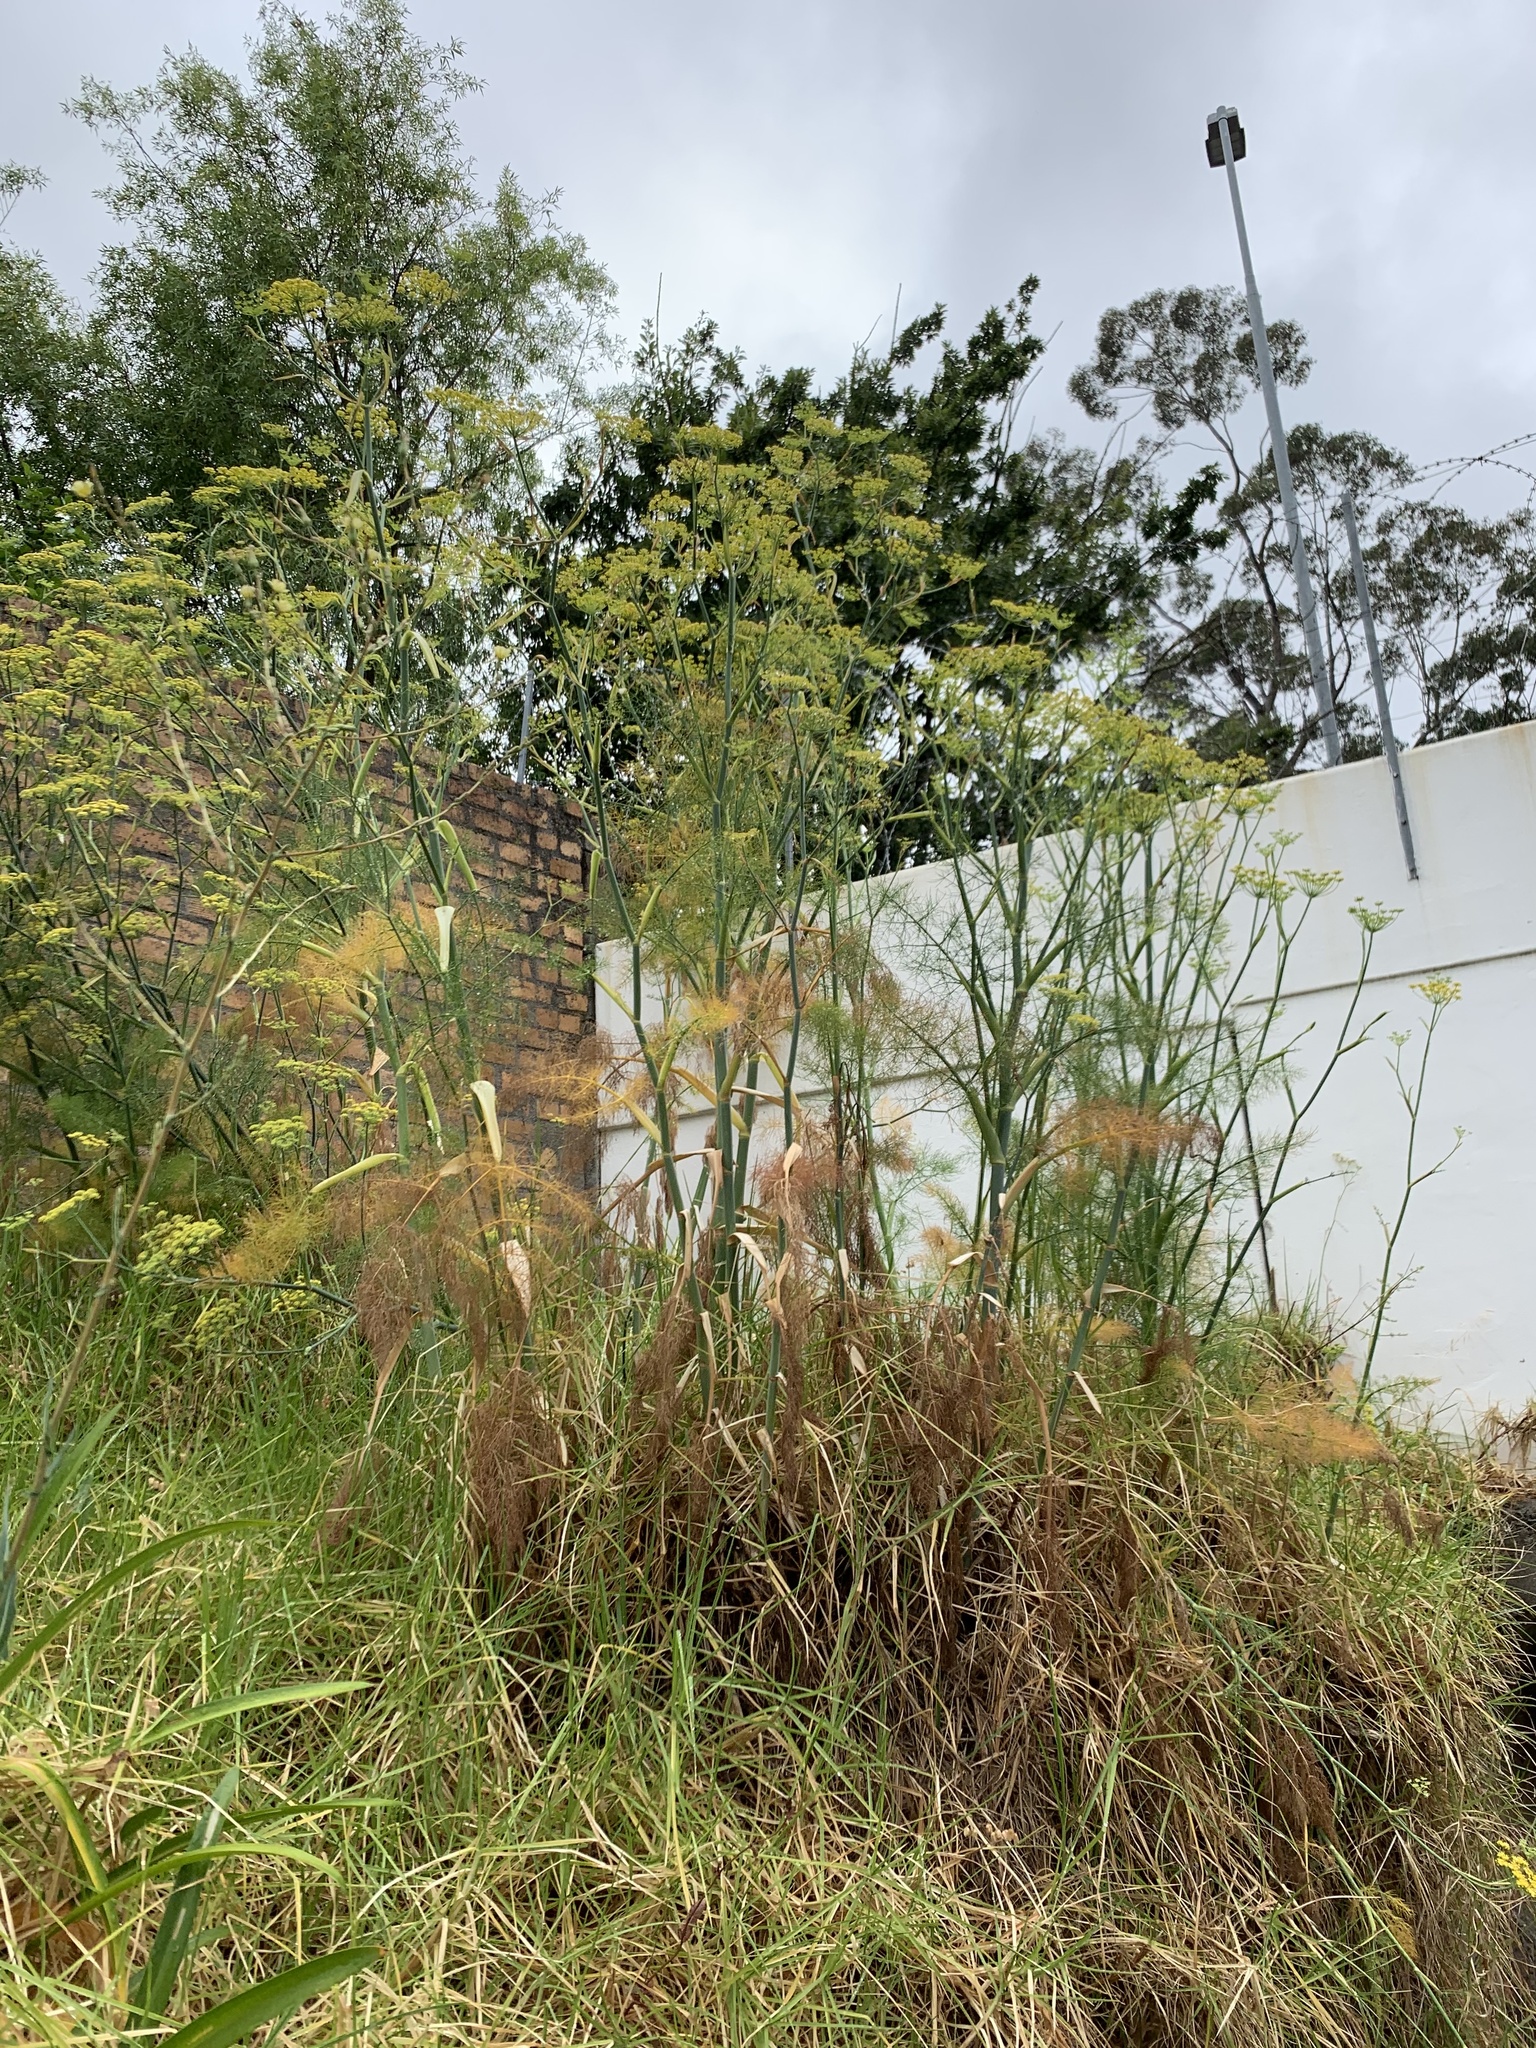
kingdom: Plantae
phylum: Tracheophyta
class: Magnoliopsida
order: Apiales
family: Apiaceae
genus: Foeniculum
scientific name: Foeniculum vulgare
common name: Fennel
